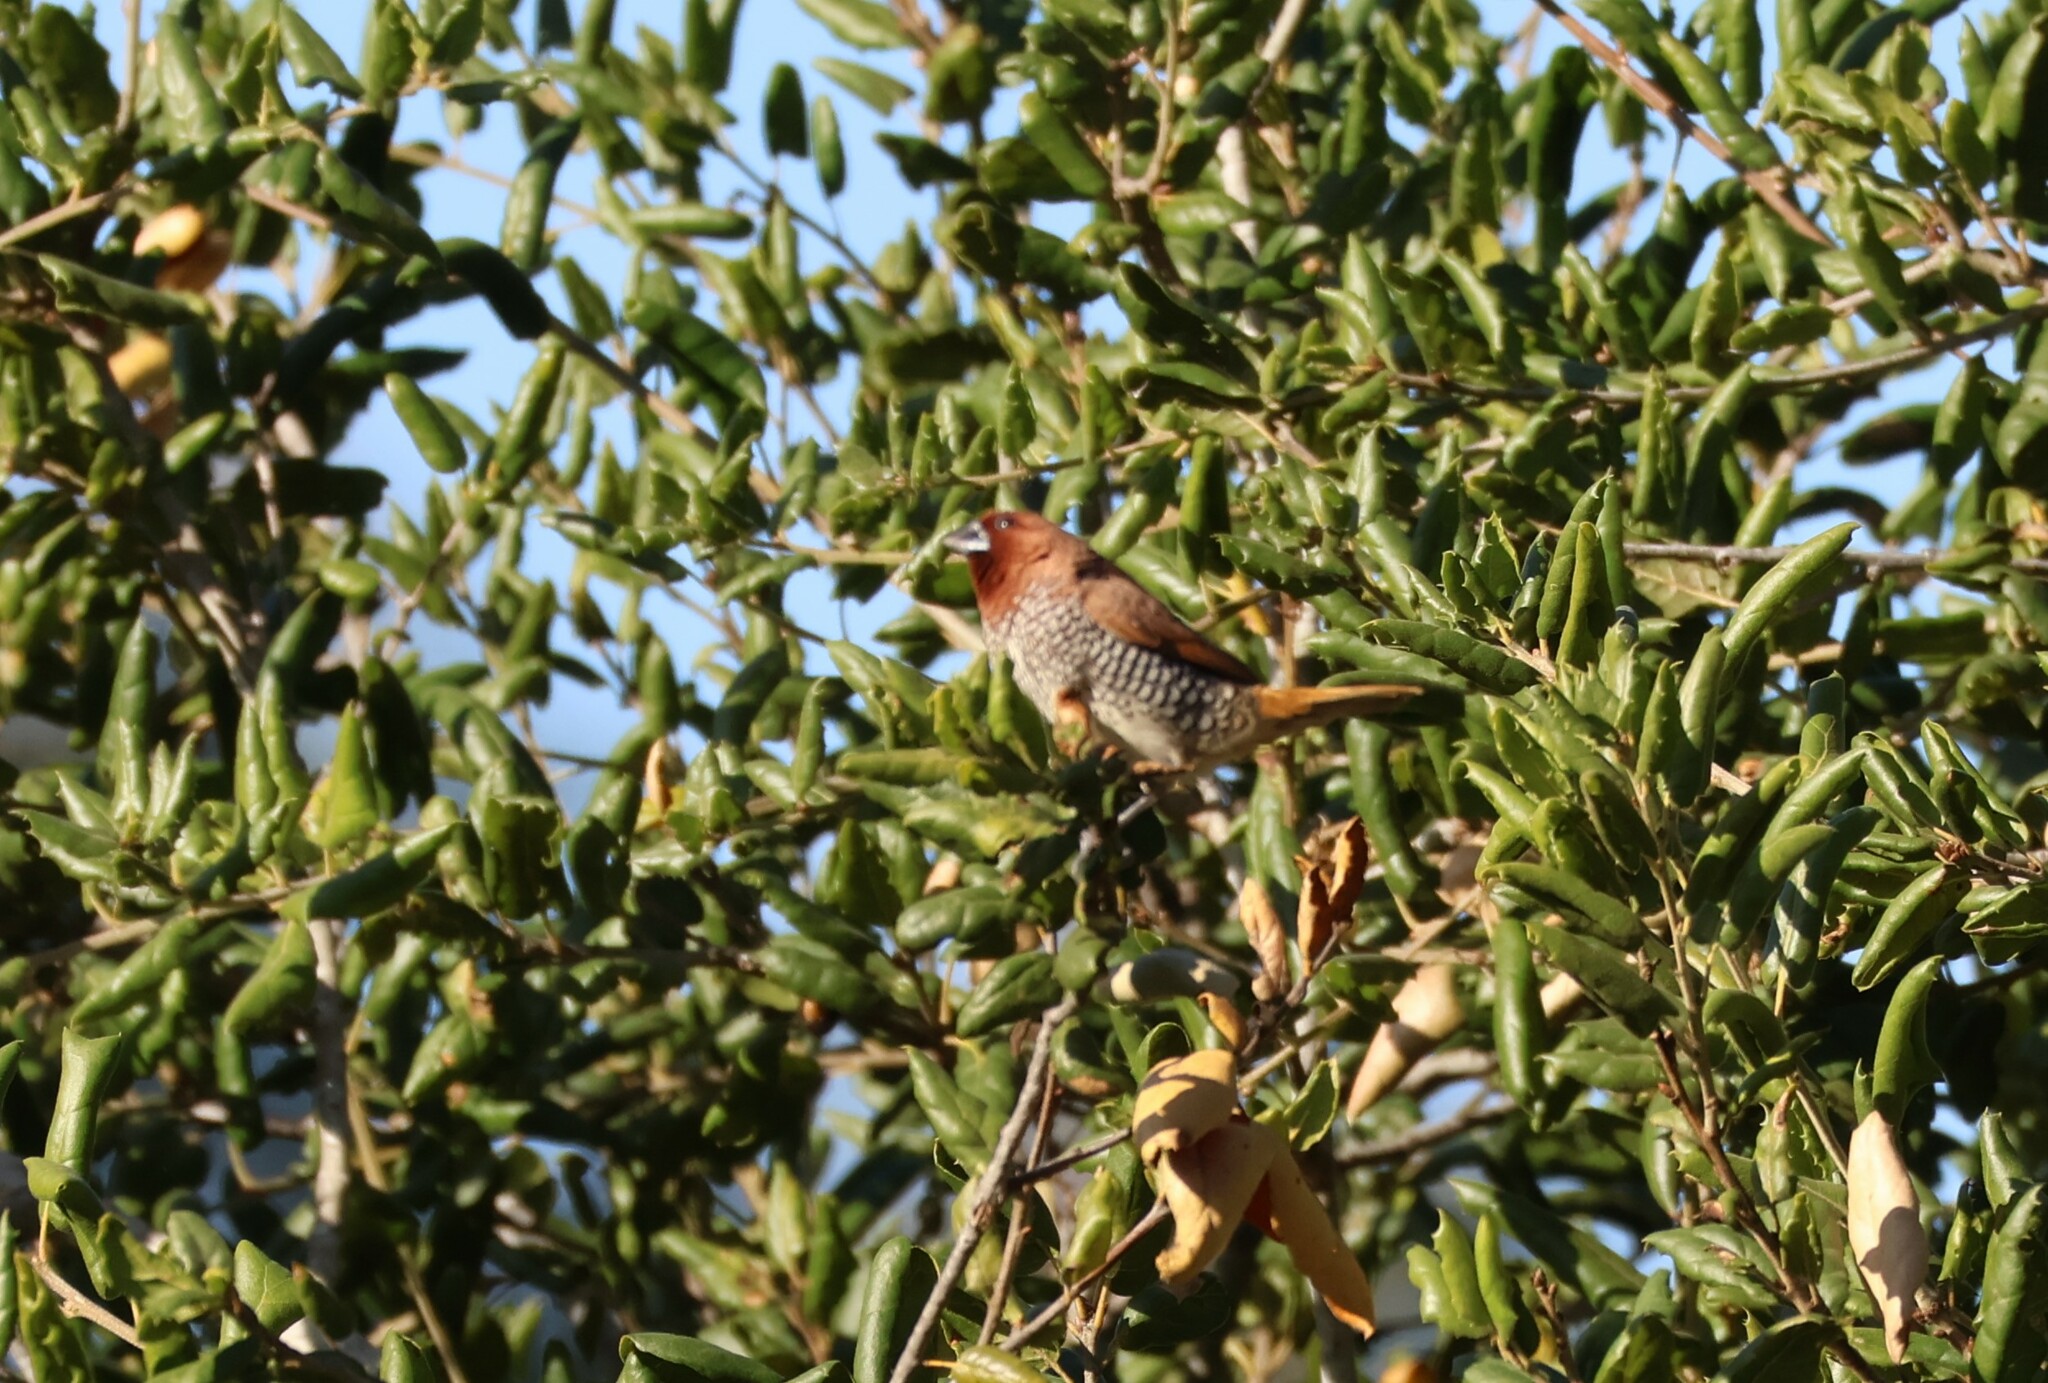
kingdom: Animalia
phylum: Chordata
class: Aves
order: Passeriformes
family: Estrildidae
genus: Lonchura
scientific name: Lonchura punctulata
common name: Scaly-breasted munia
